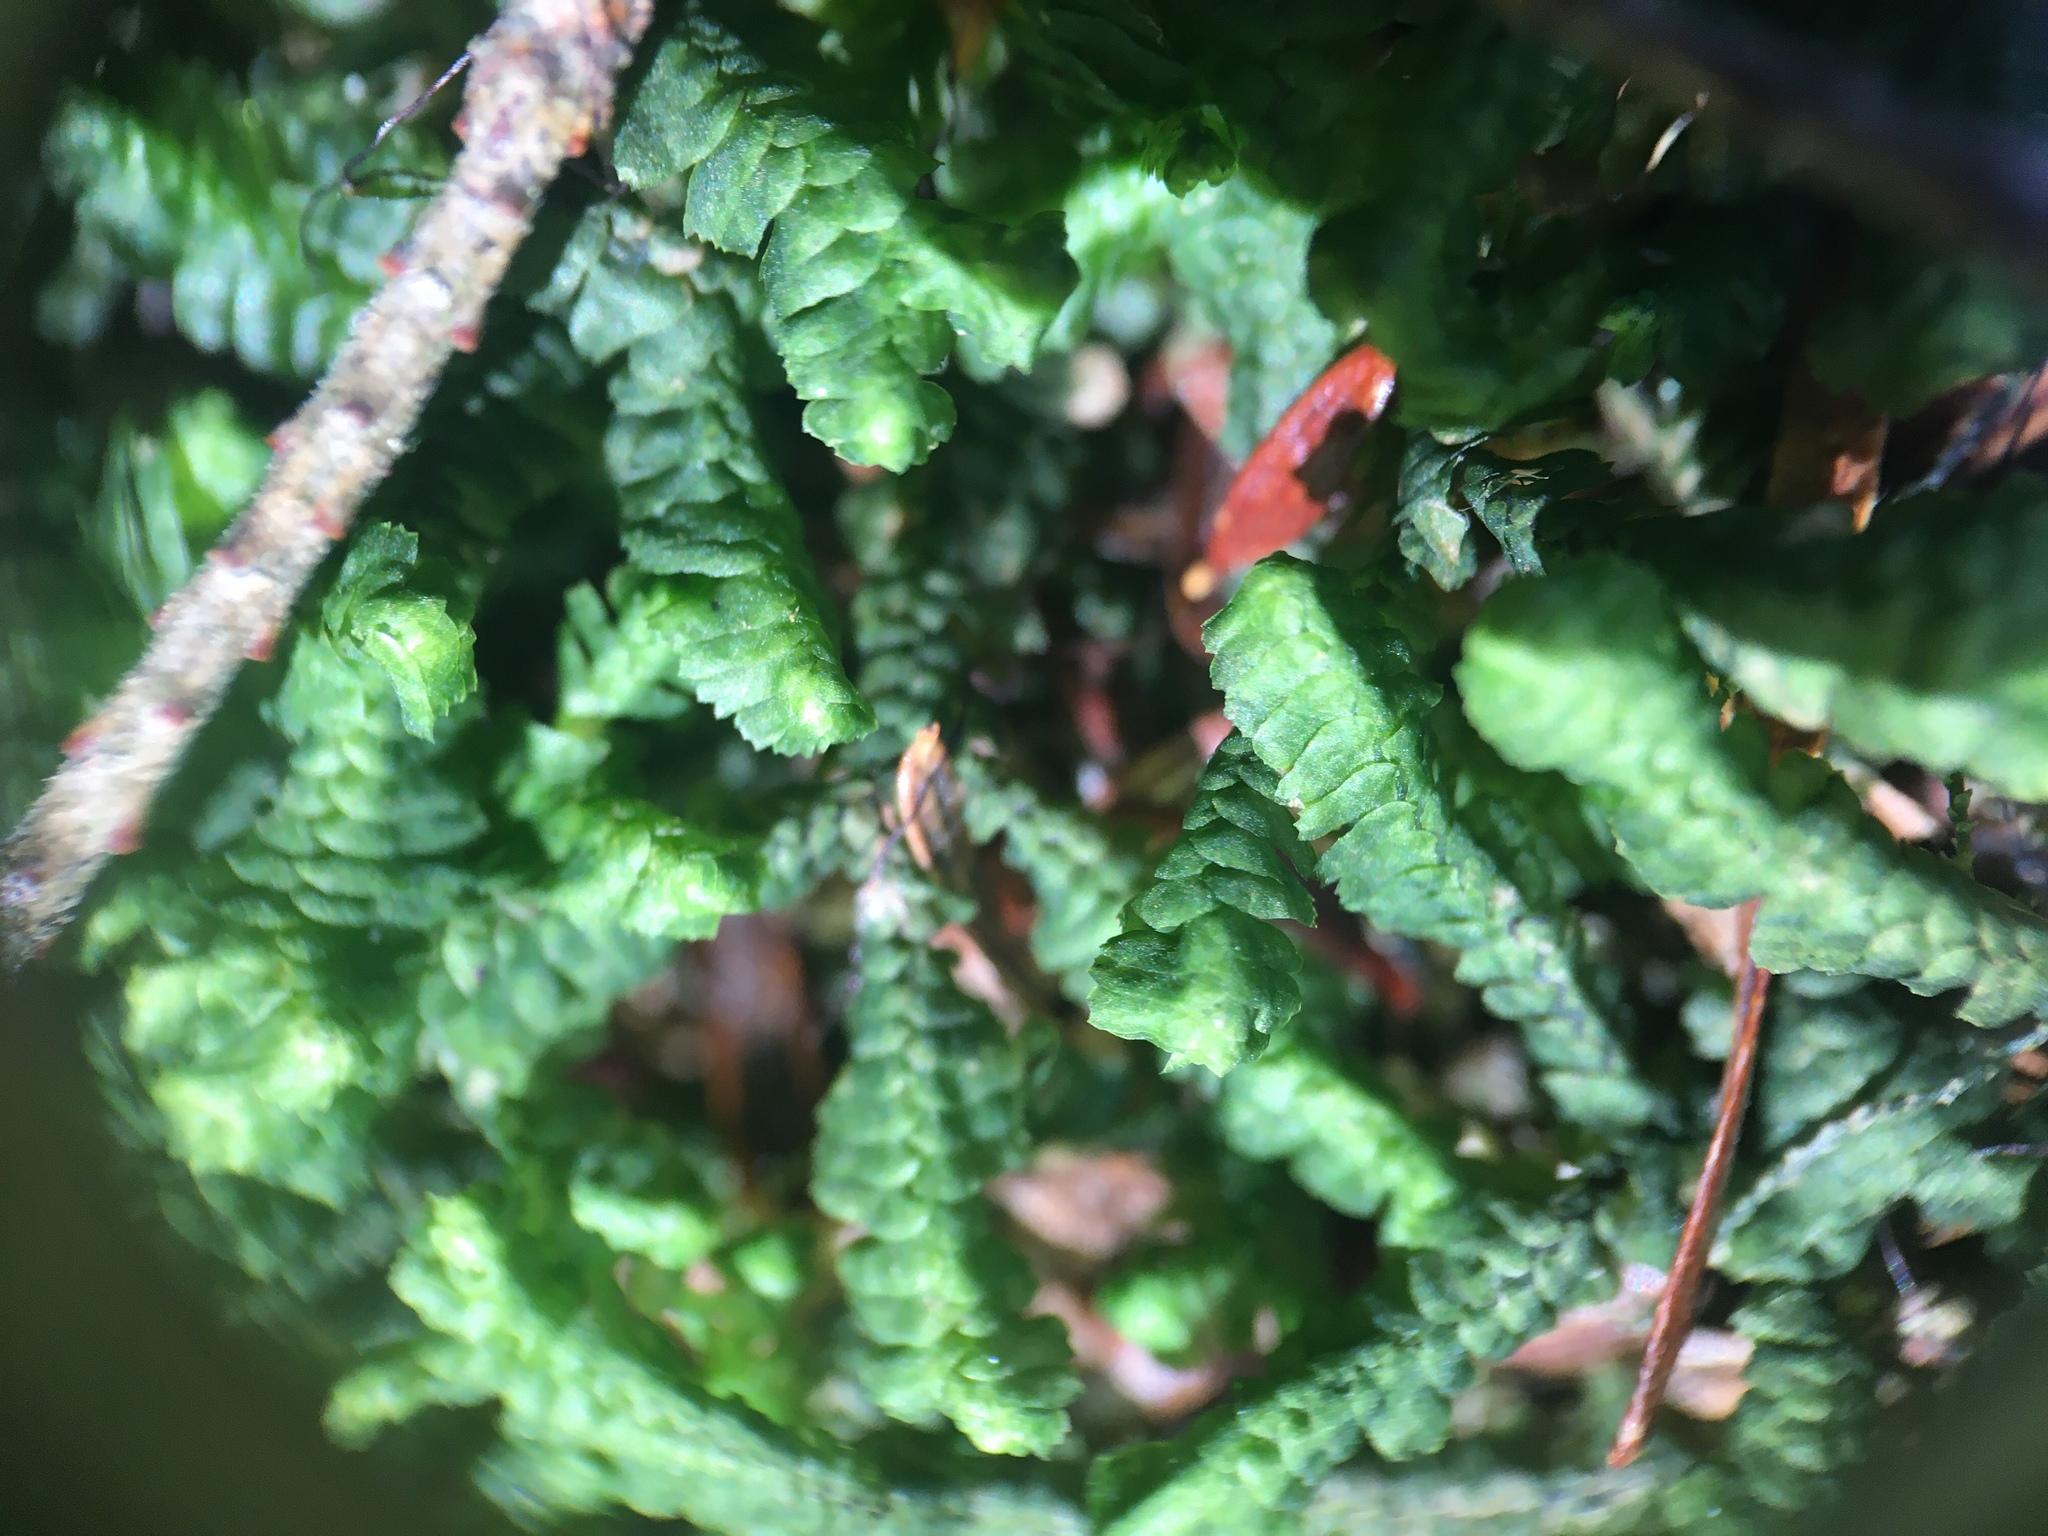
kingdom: Plantae
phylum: Marchantiophyta
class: Jungermanniopsida
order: Jungermanniales
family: Lepidoziaceae
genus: Bazzania
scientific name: Bazzania trilobata
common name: Three-lobed whipwort
